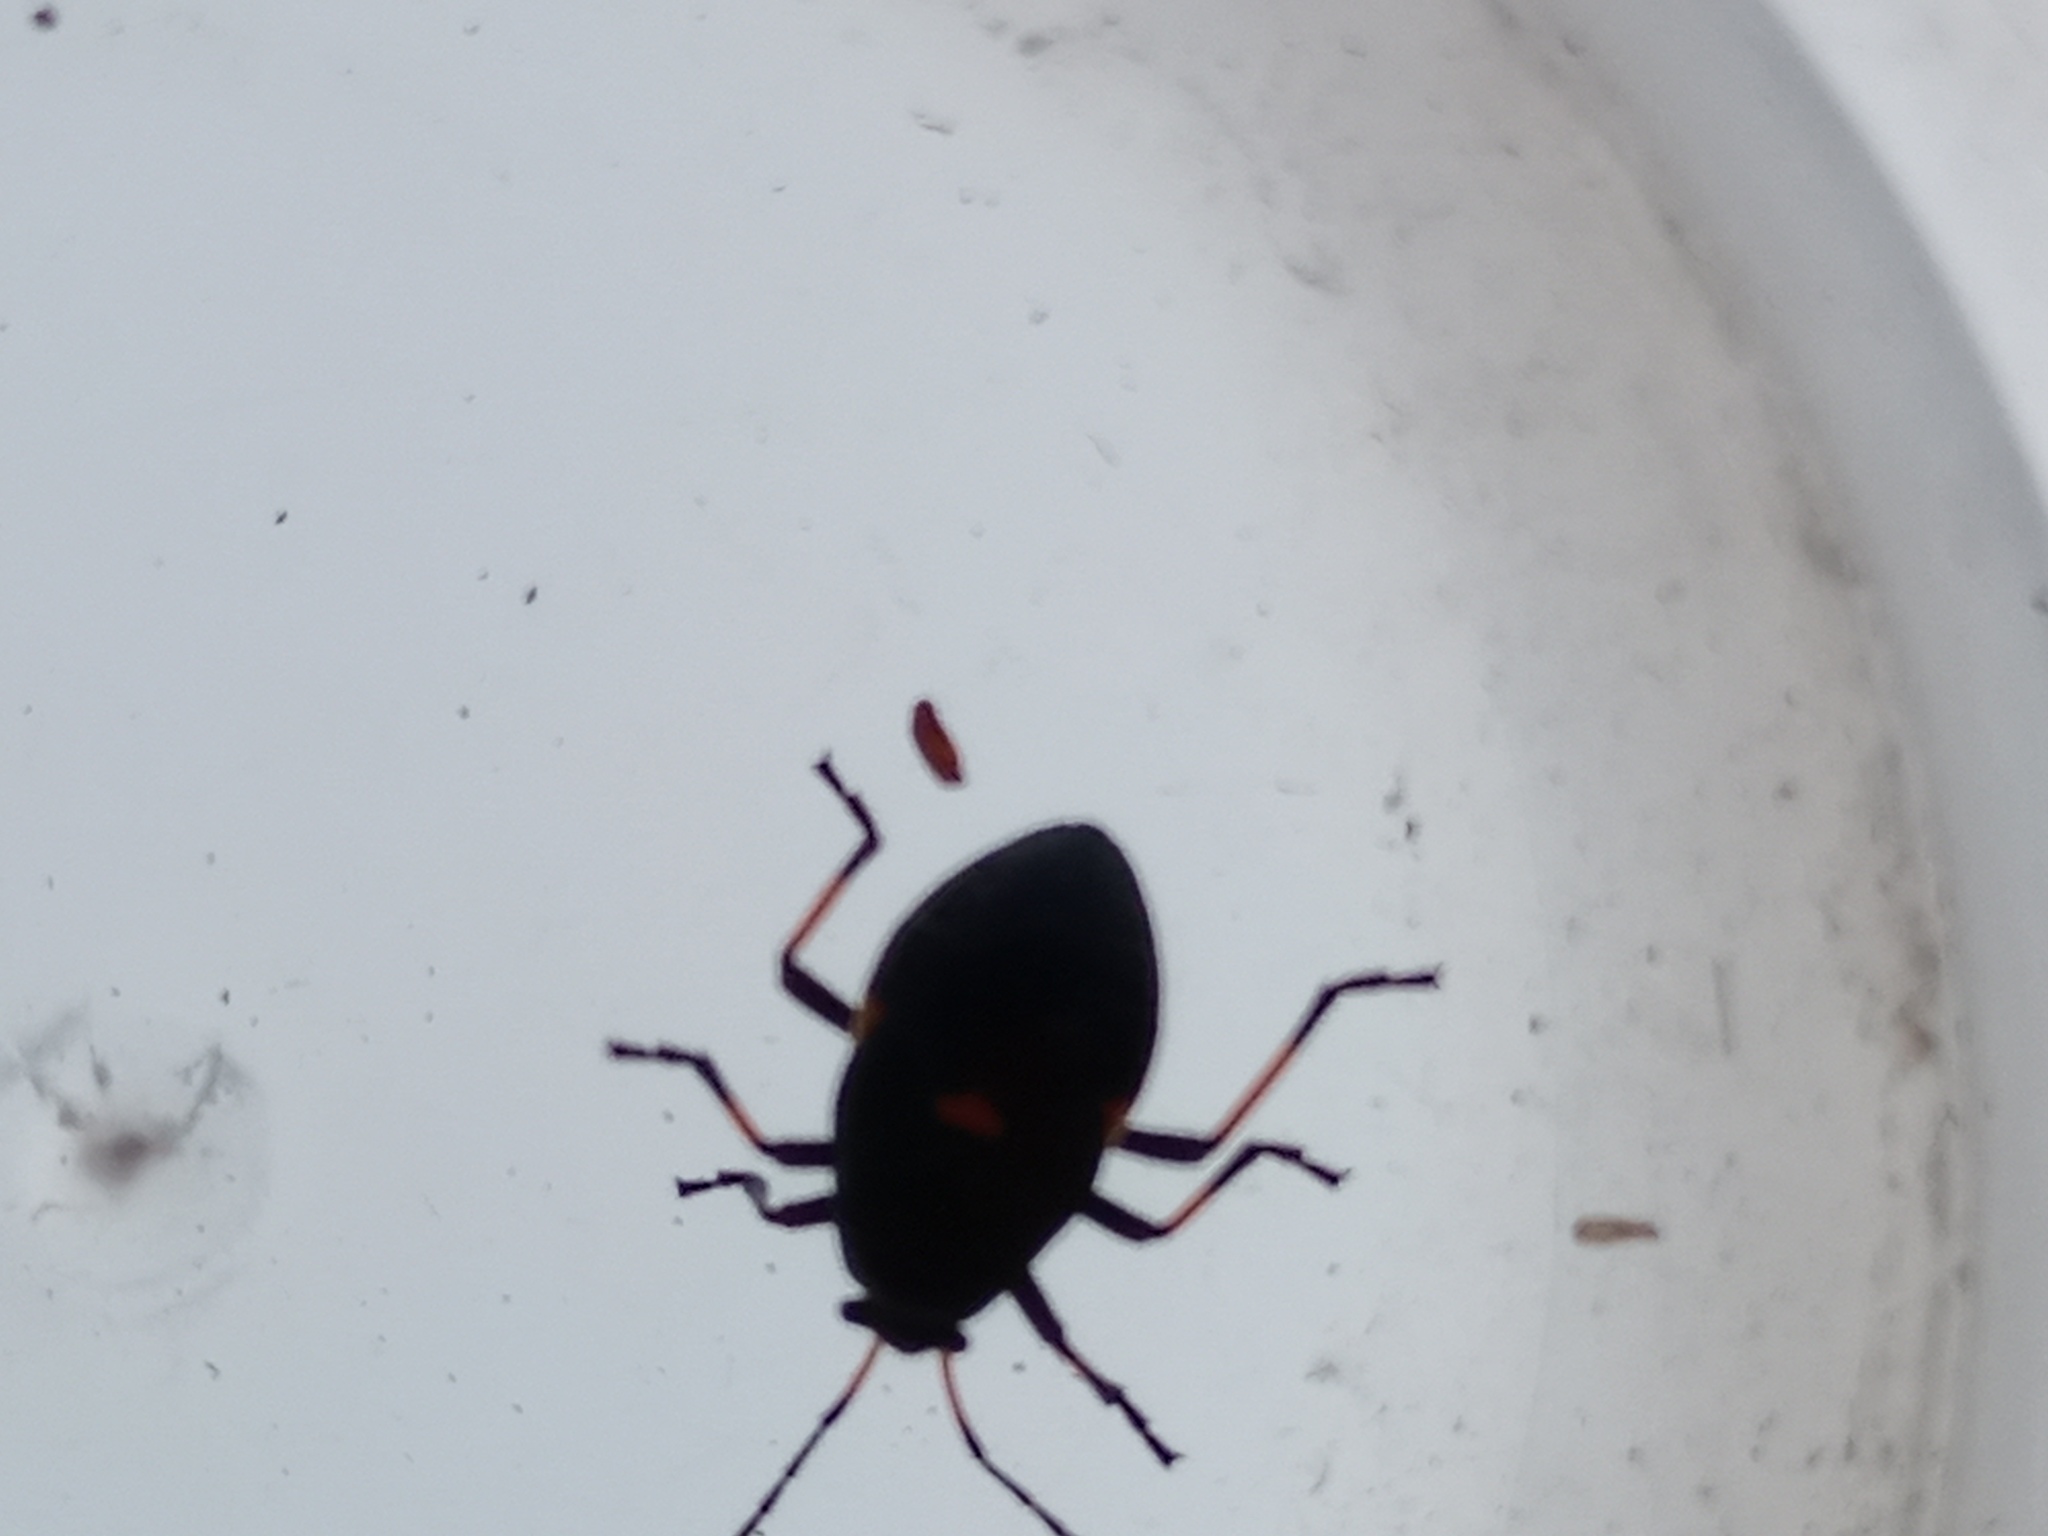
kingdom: Animalia
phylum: Arthropoda
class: Insecta
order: Hemiptera
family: Largidae
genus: Largus
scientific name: Largus fasciatus
